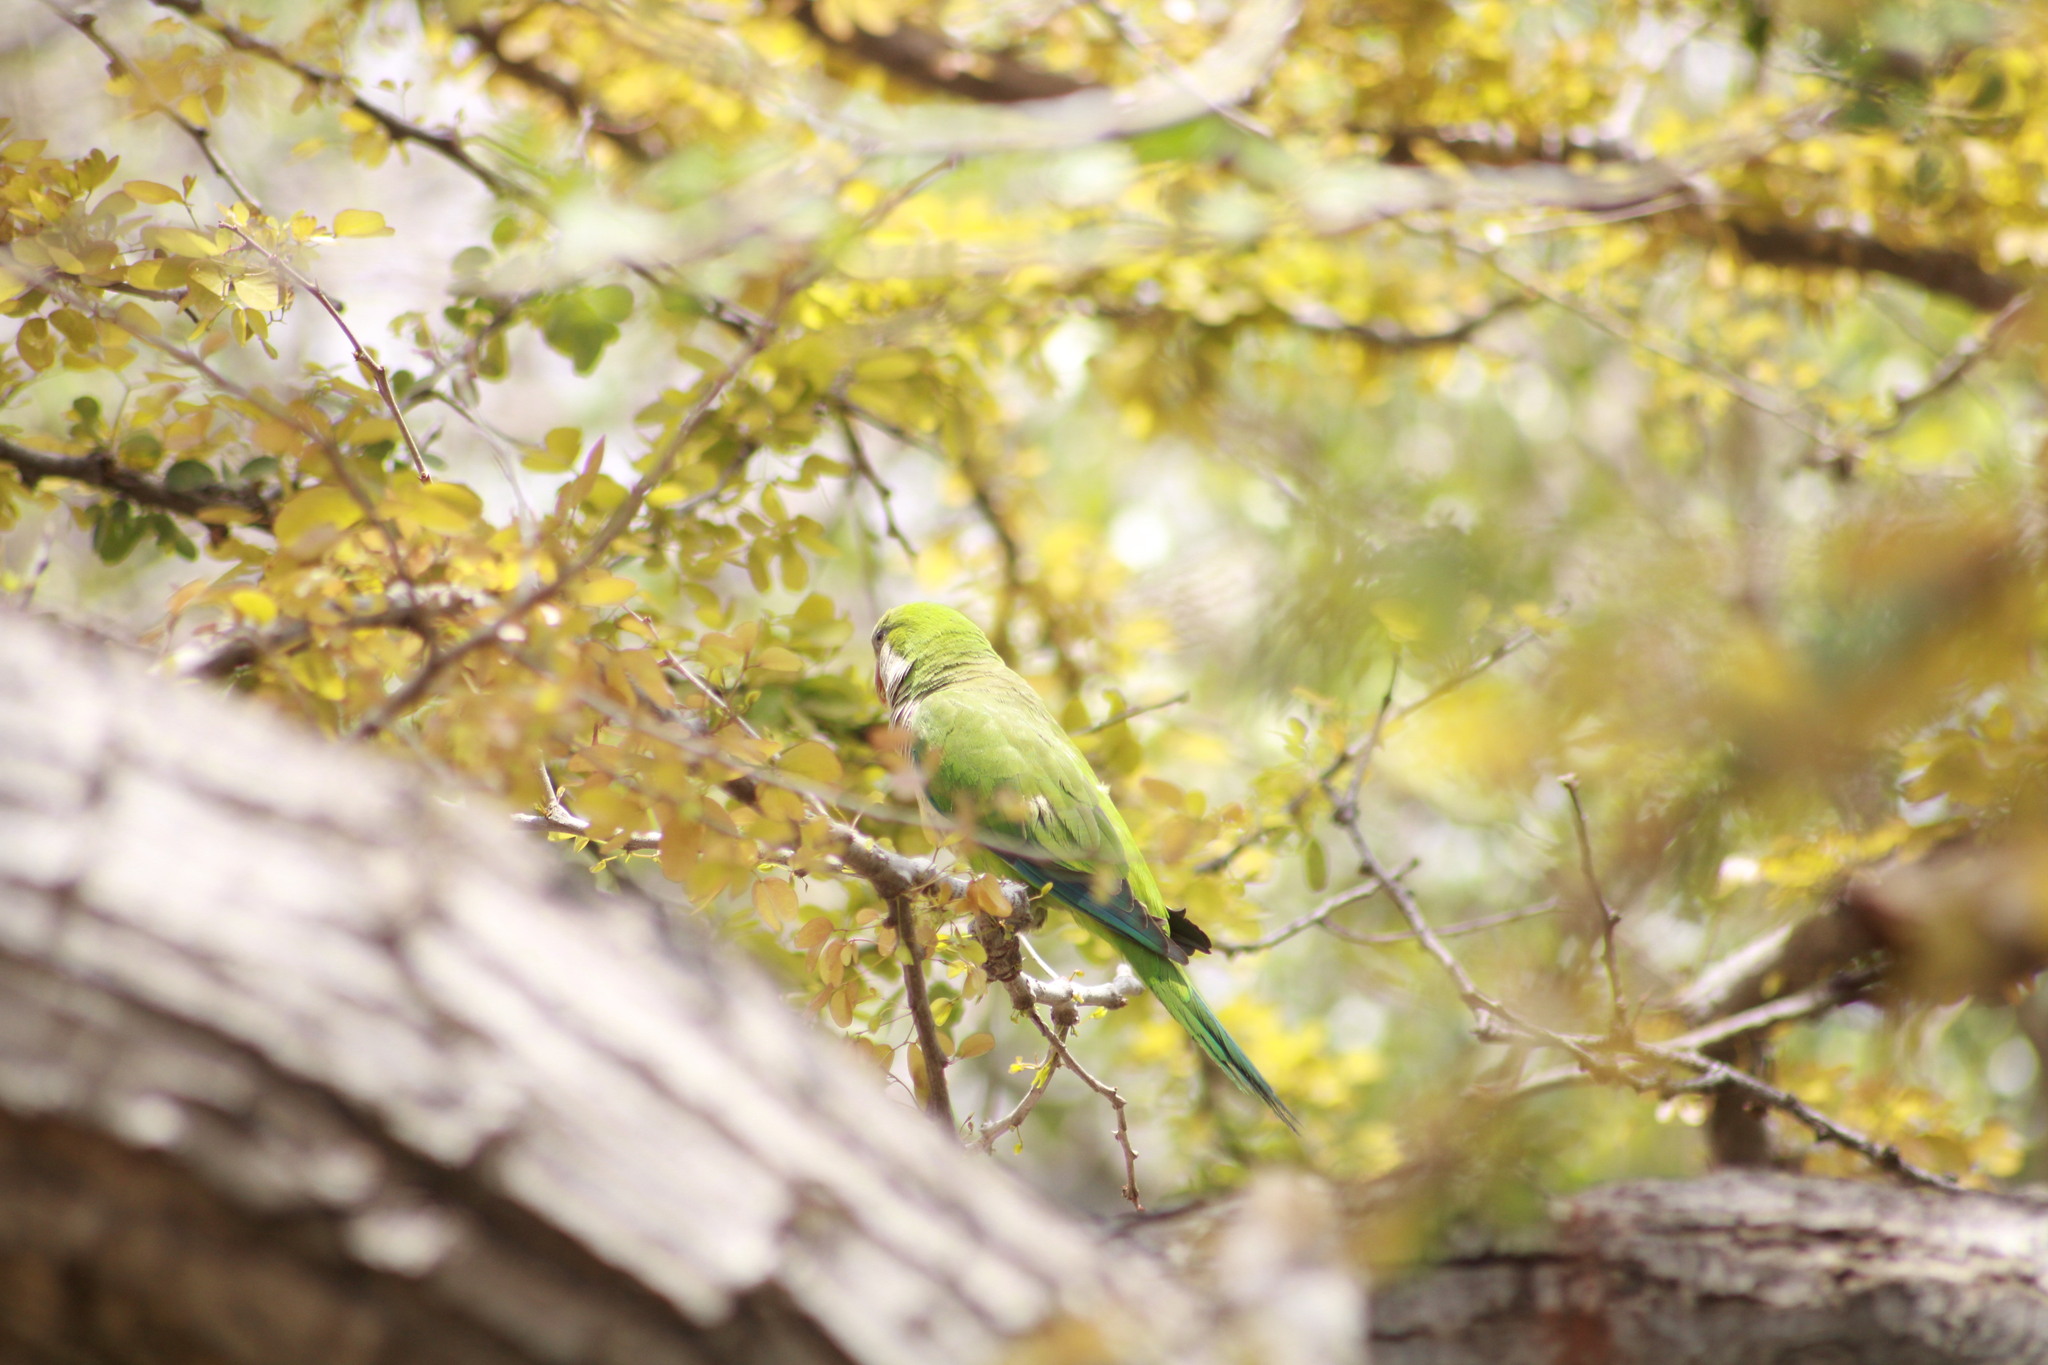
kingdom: Animalia
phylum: Chordata
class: Aves
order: Psittaciformes
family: Psittacidae
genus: Myiopsitta
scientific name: Myiopsitta monachus
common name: Monk parakeet
